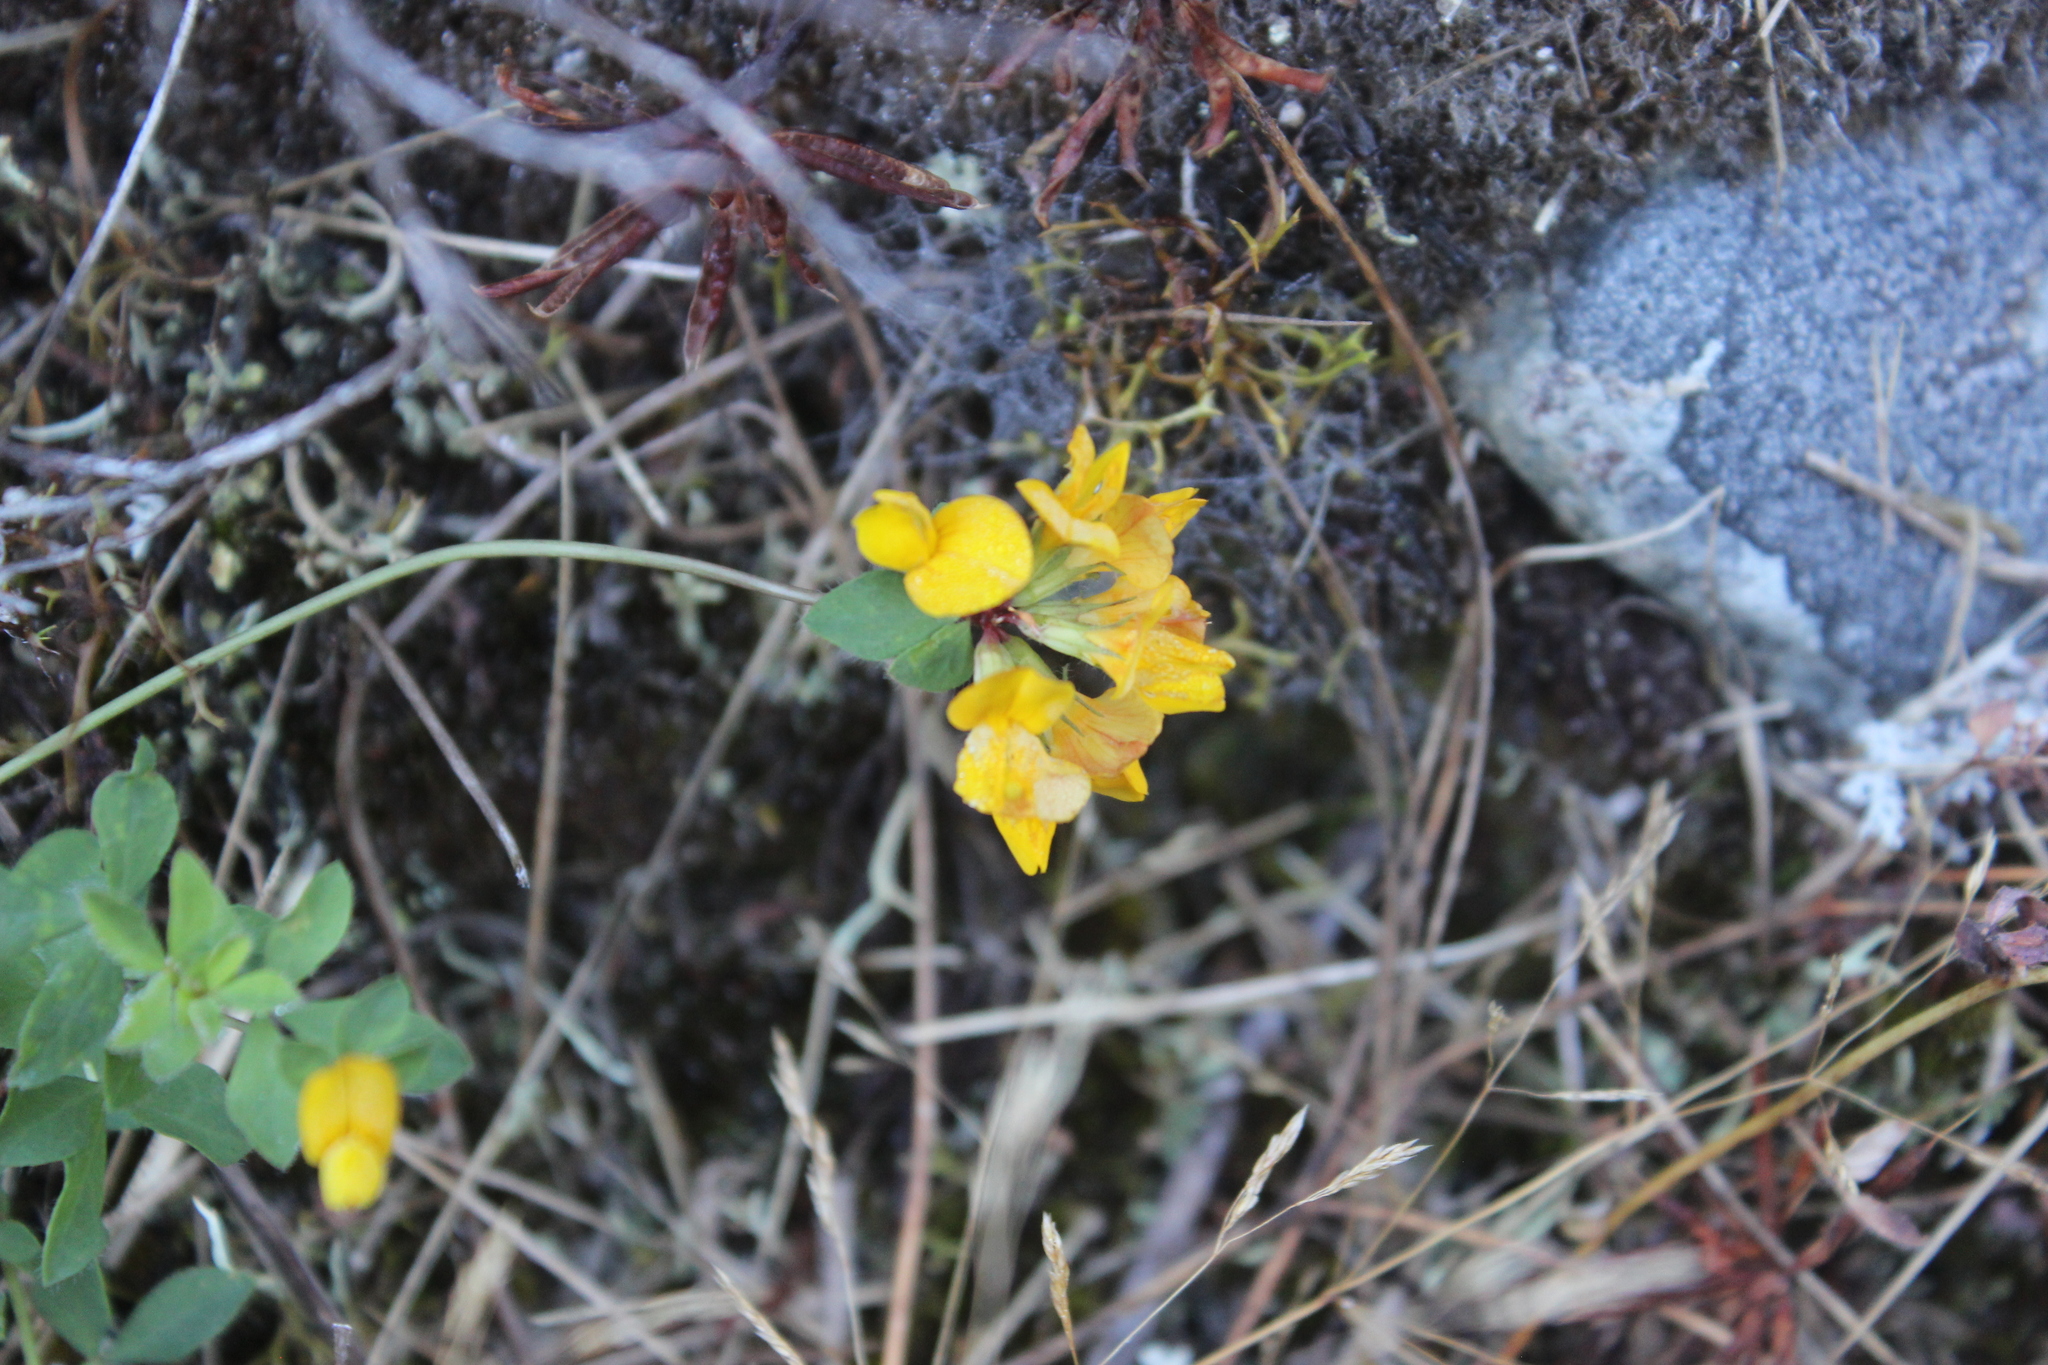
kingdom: Plantae
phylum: Tracheophyta
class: Magnoliopsida
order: Fabales
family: Fabaceae
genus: Lotus
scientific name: Lotus pedunculatus
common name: Greater birdsfoot-trefoil
